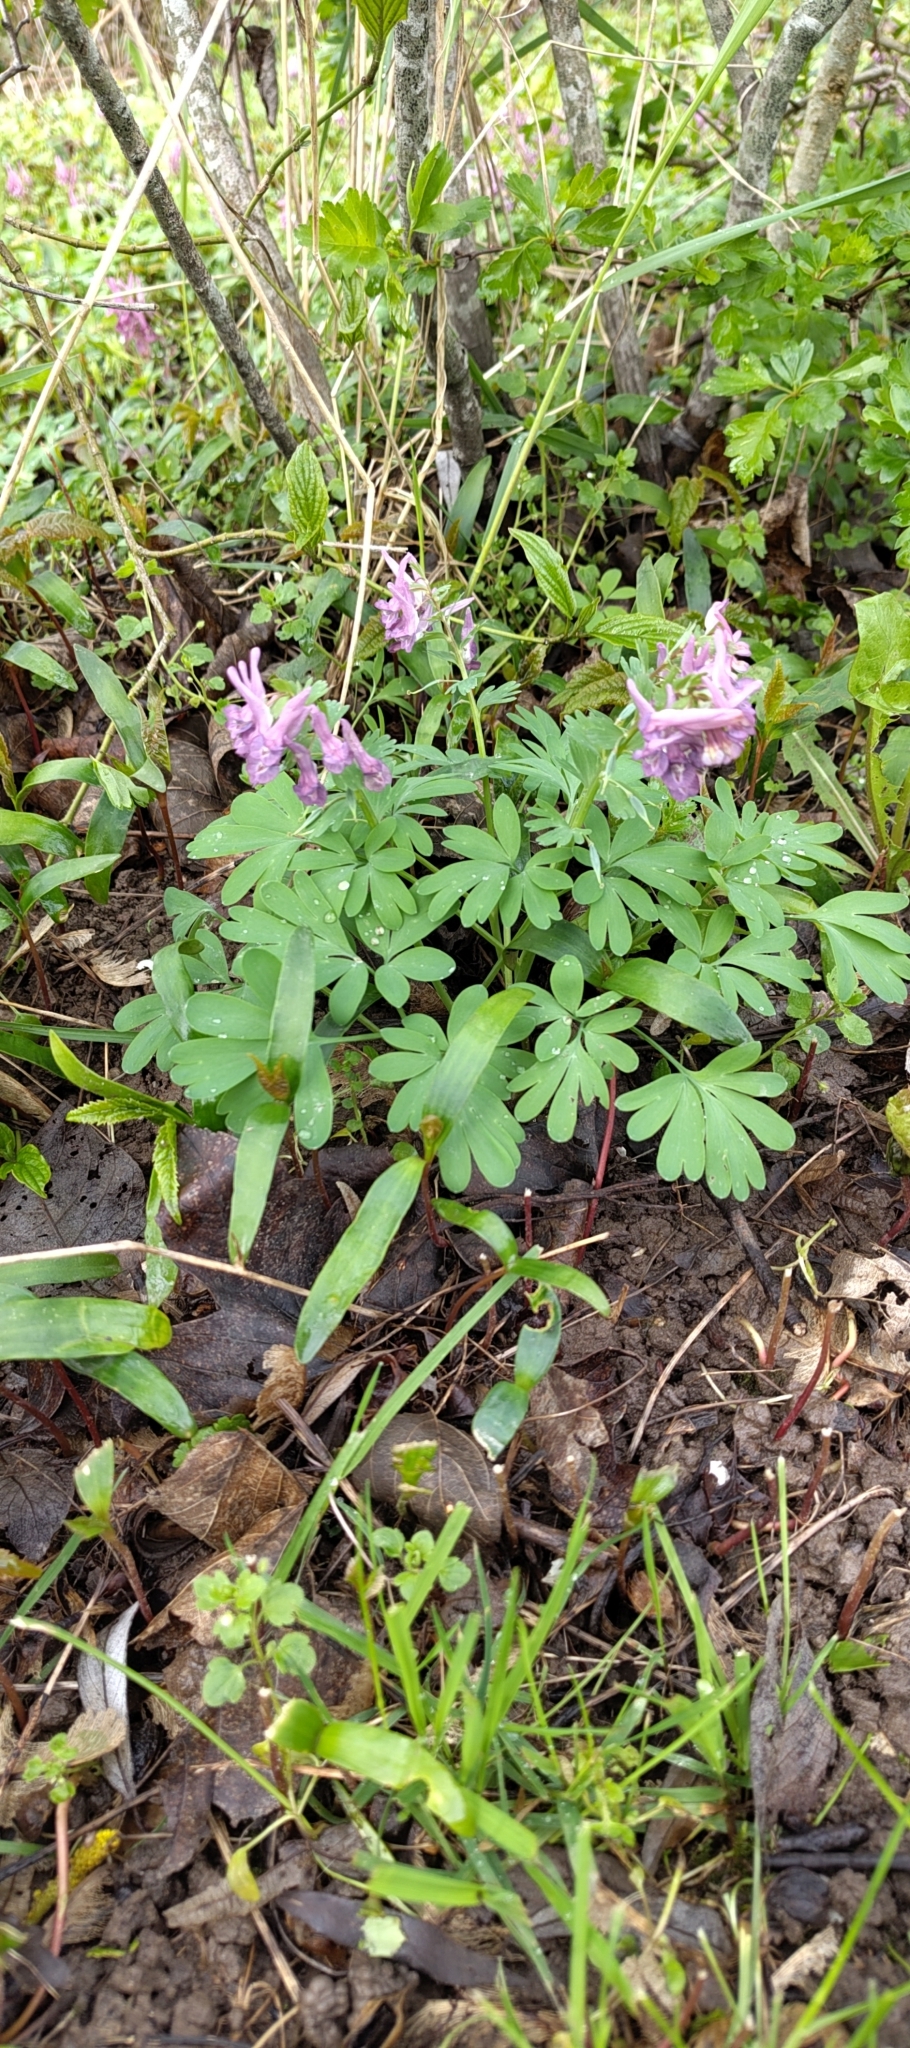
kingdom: Plantae
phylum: Tracheophyta
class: Magnoliopsida
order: Ranunculales
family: Papaveraceae
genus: Corydalis
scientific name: Corydalis solida
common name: Bird-in-a-bush
